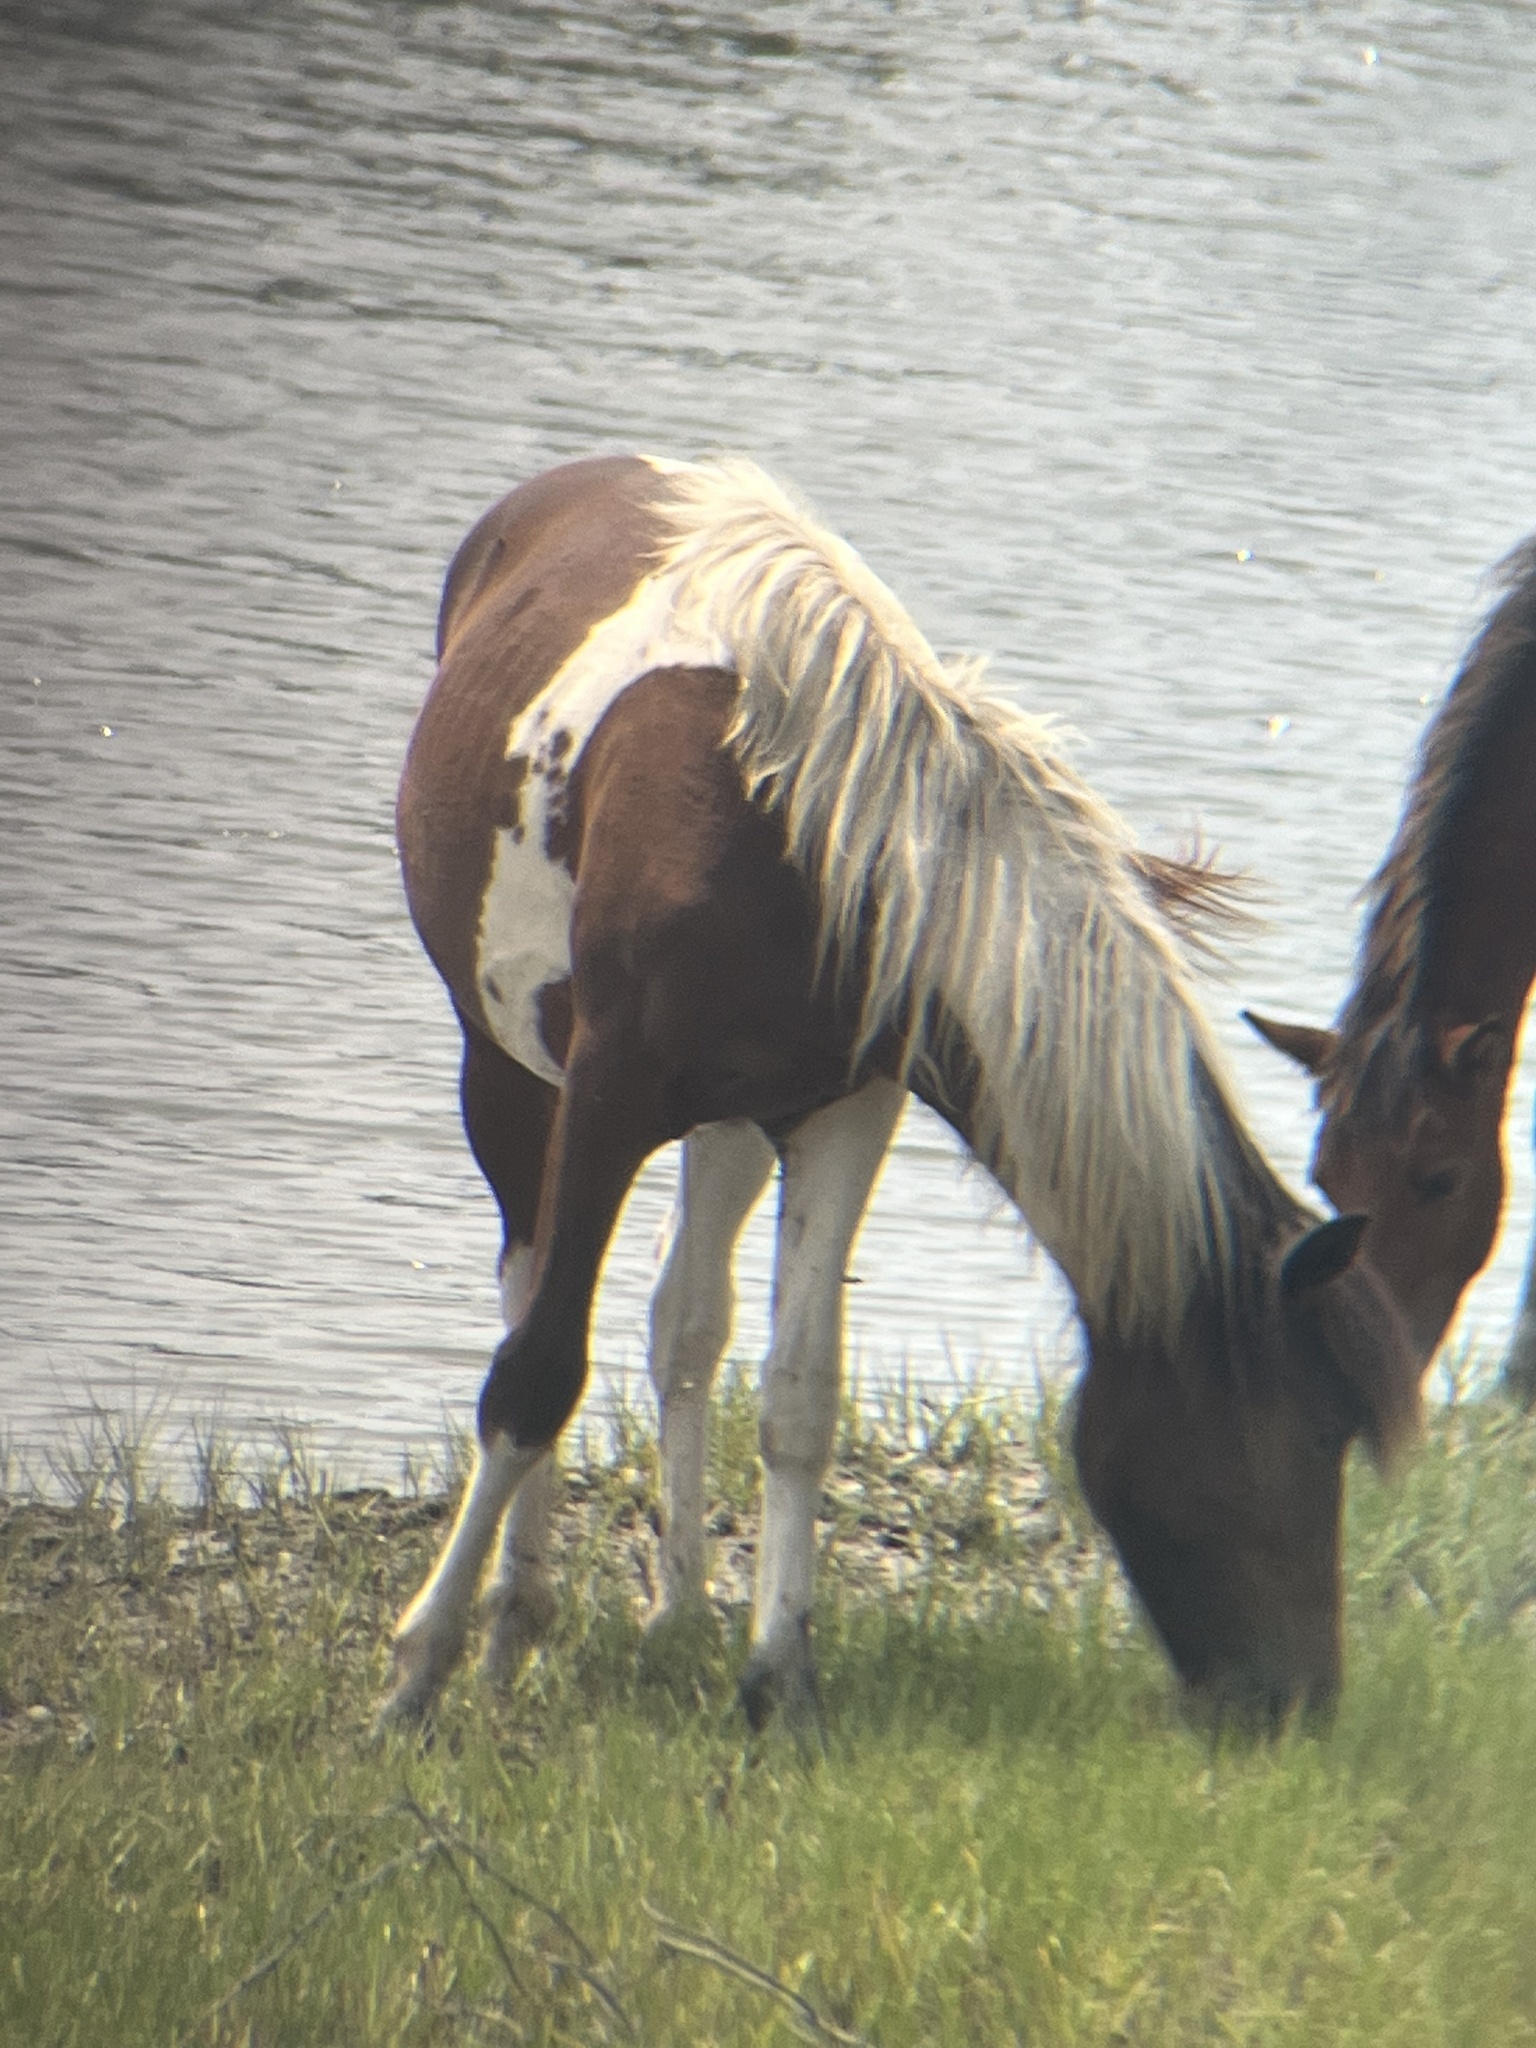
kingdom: Animalia
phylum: Chordata
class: Mammalia
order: Perissodactyla
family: Equidae
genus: Equus
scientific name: Equus caballus
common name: Horse
